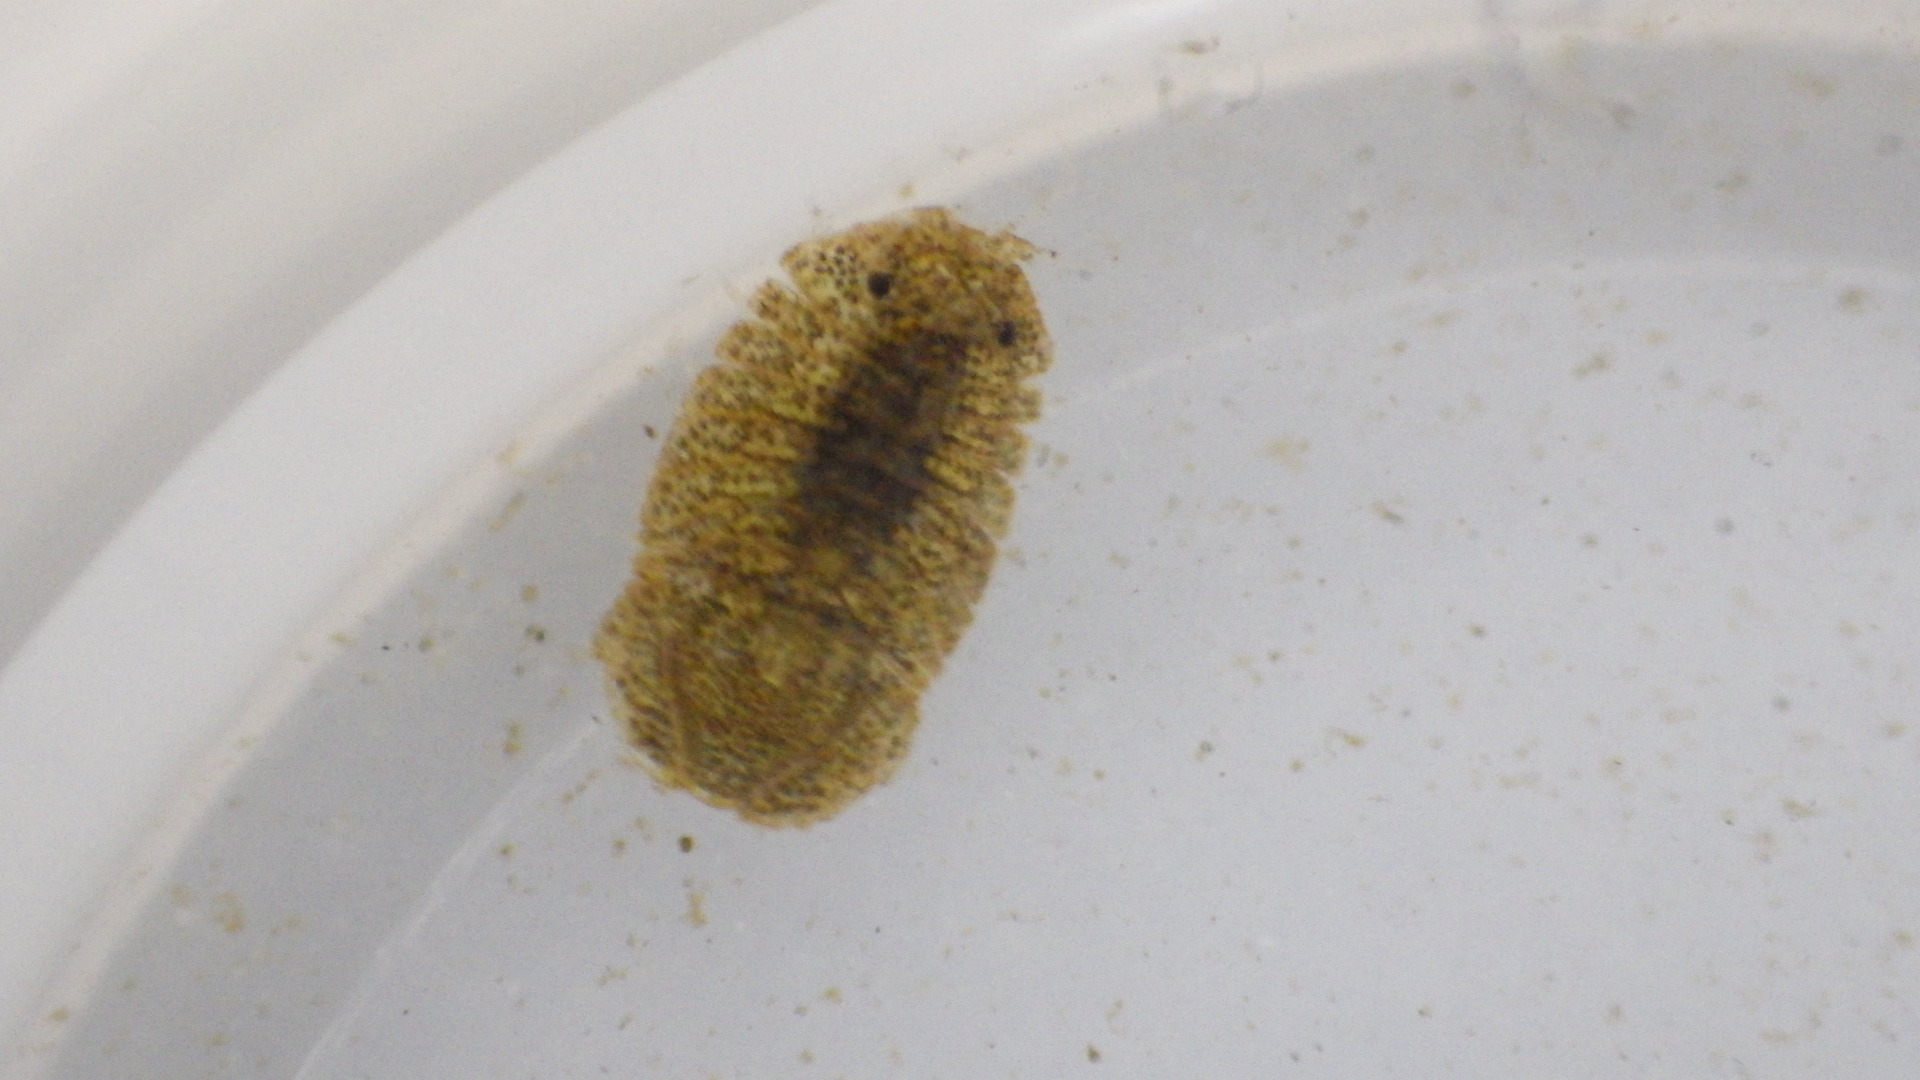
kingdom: Animalia
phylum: Arthropoda
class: Malacostraca
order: Isopoda
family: Sphaeromatidae
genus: Cassidinidea
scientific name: Cassidinidea ovalis
